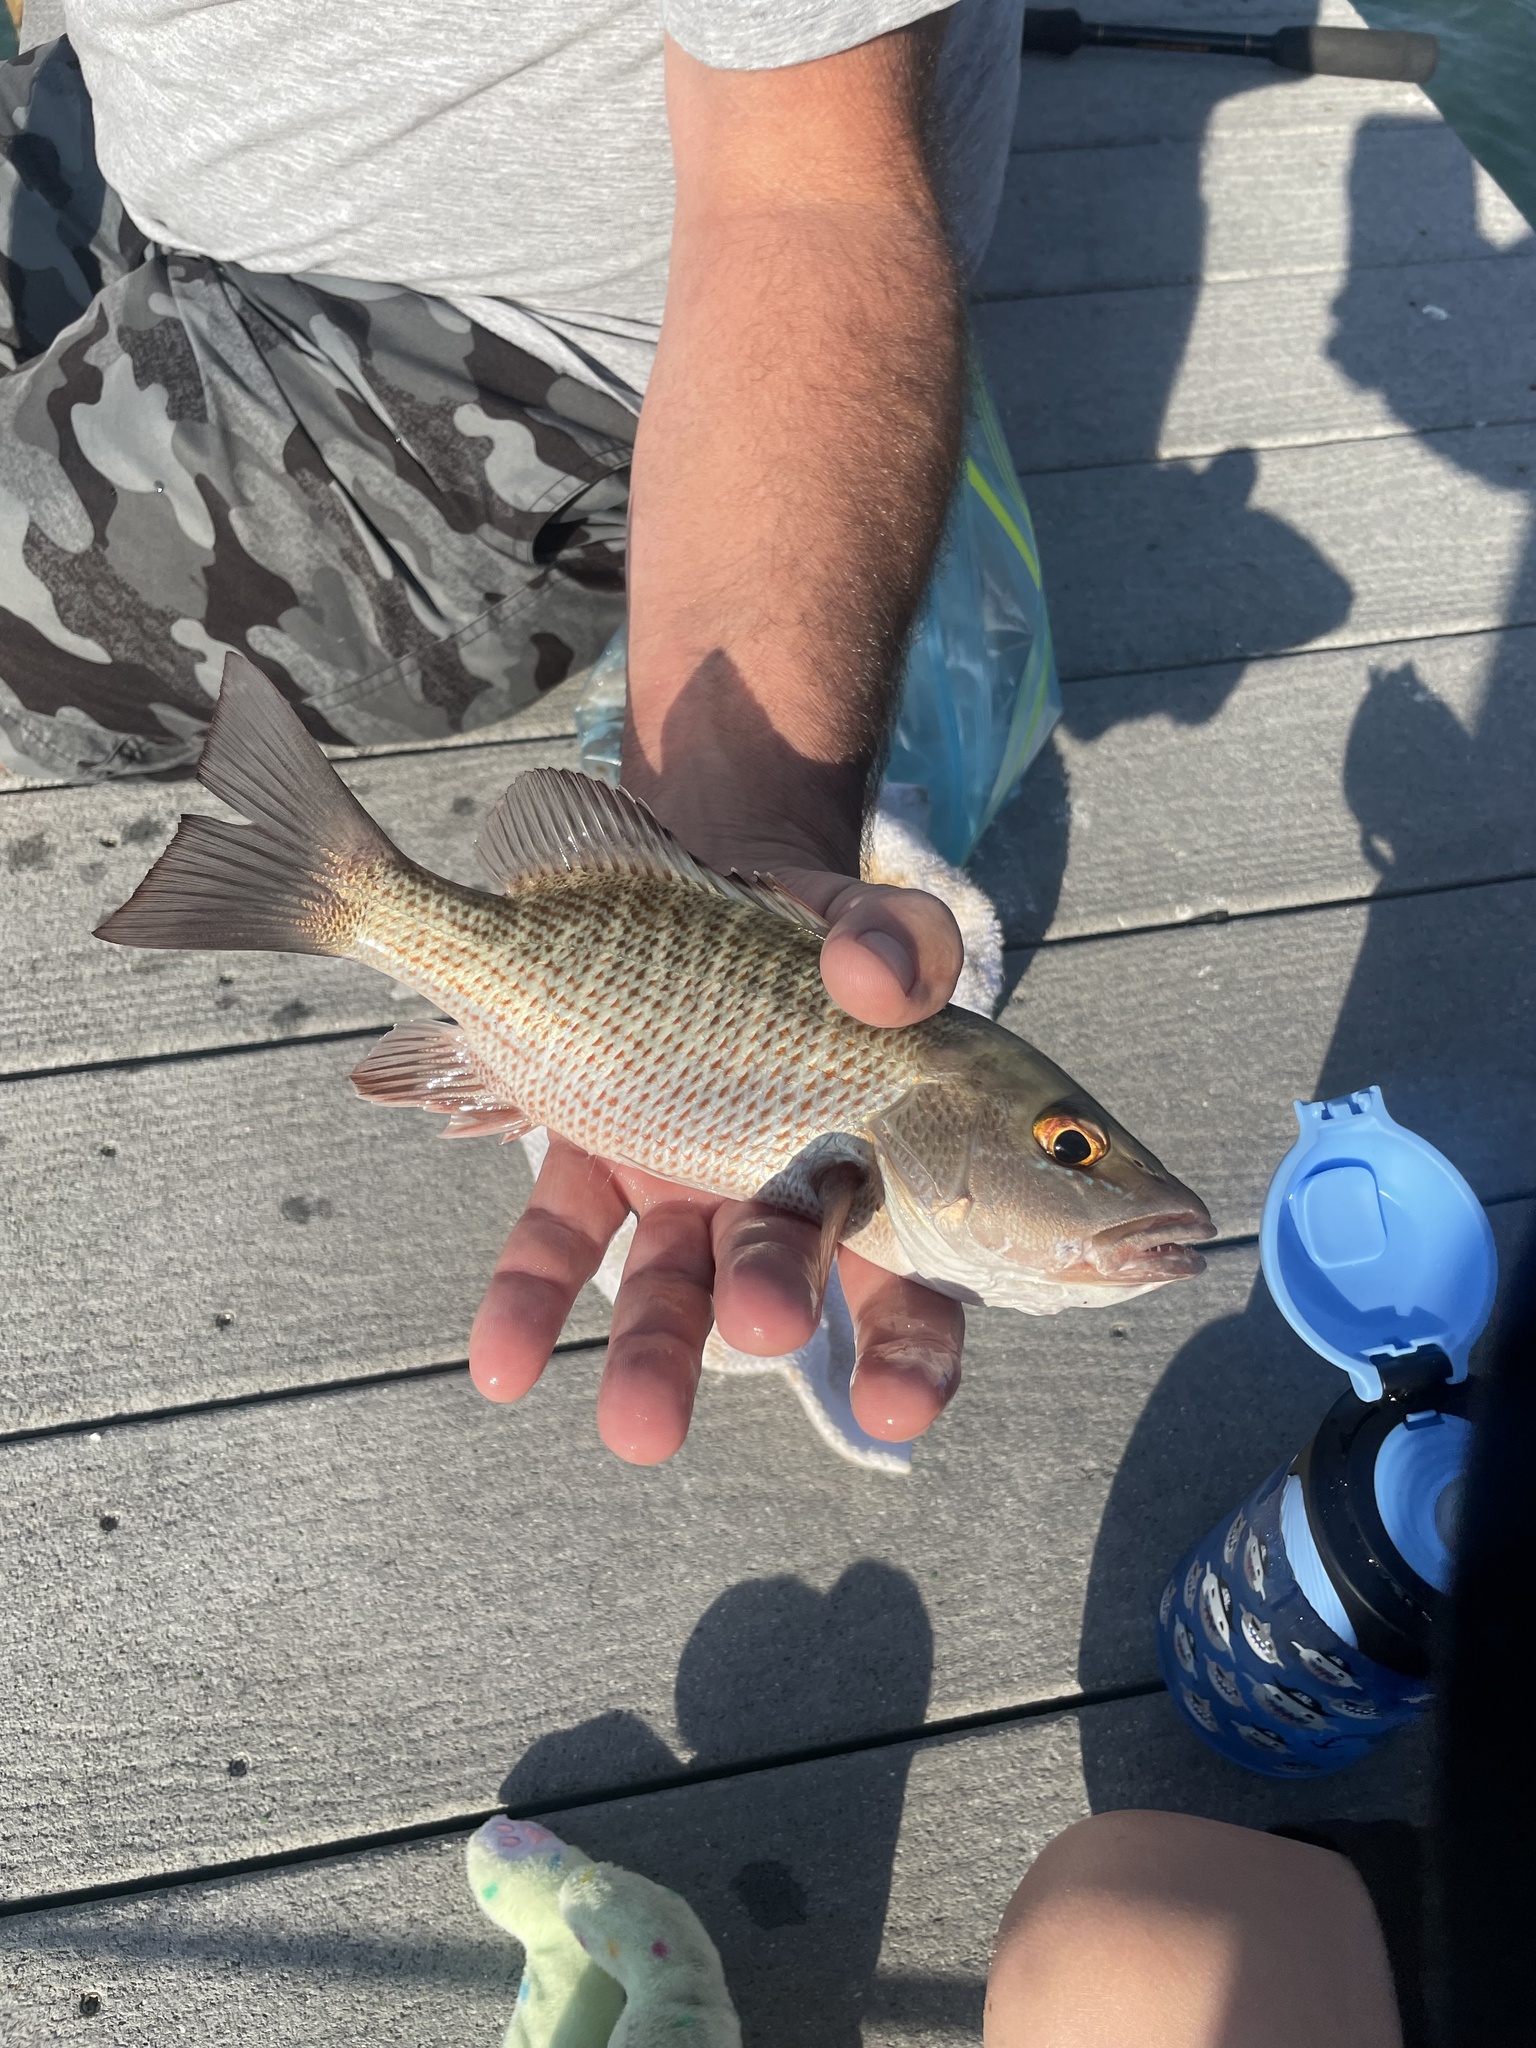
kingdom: Animalia
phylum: Chordata
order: Perciformes
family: Lutjanidae
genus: Lutjanus
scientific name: Lutjanus griseus
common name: Gray snapper
